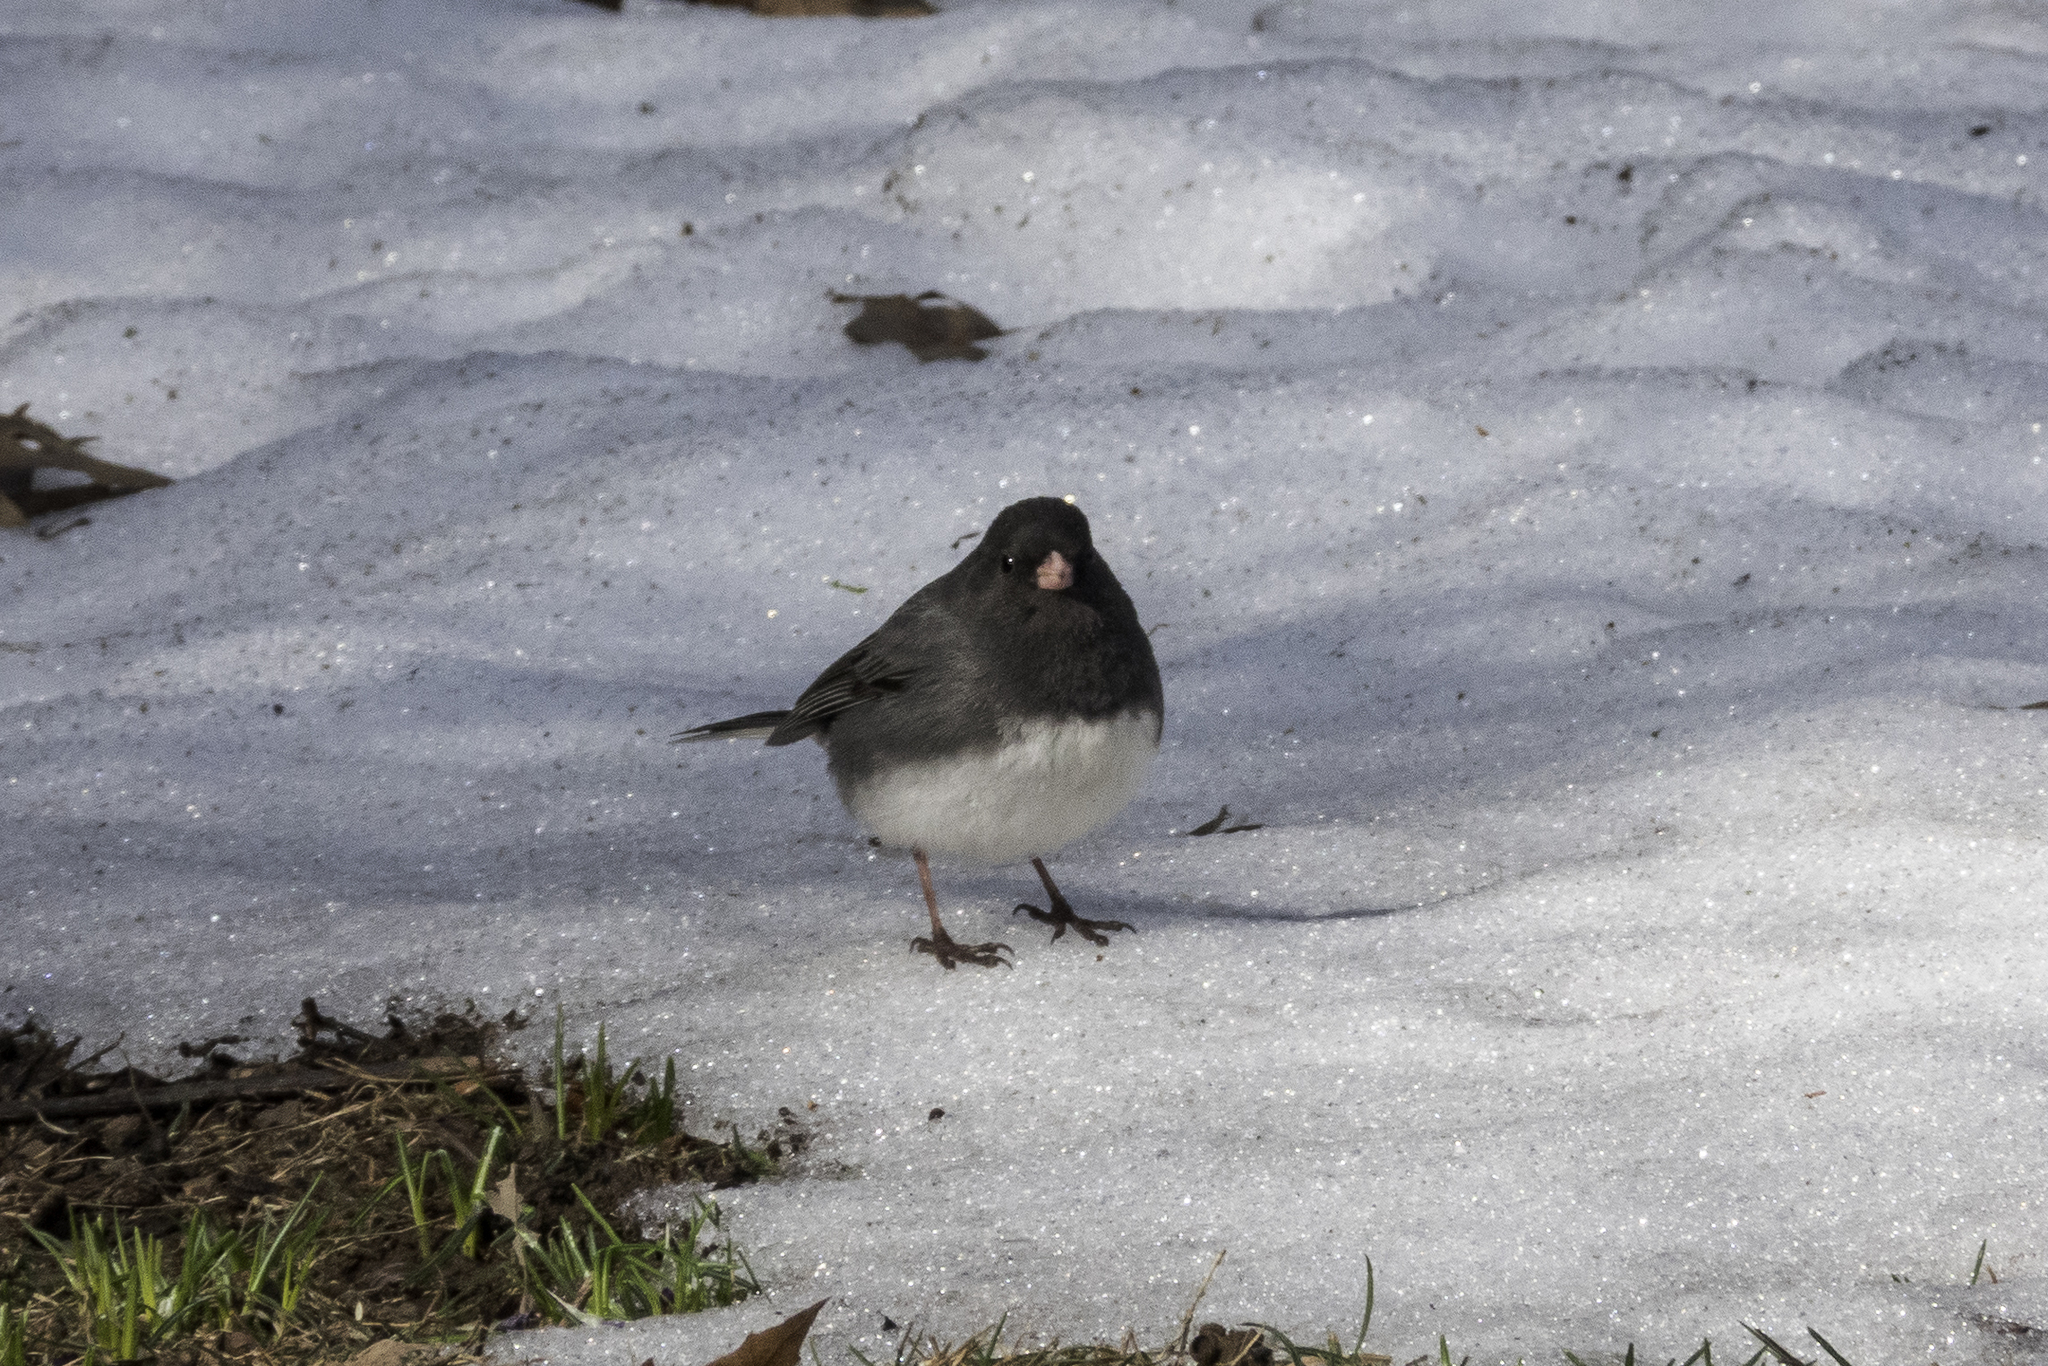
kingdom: Animalia
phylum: Chordata
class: Aves
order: Passeriformes
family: Passerellidae
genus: Junco
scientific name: Junco hyemalis
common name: Dark-eyed junco
